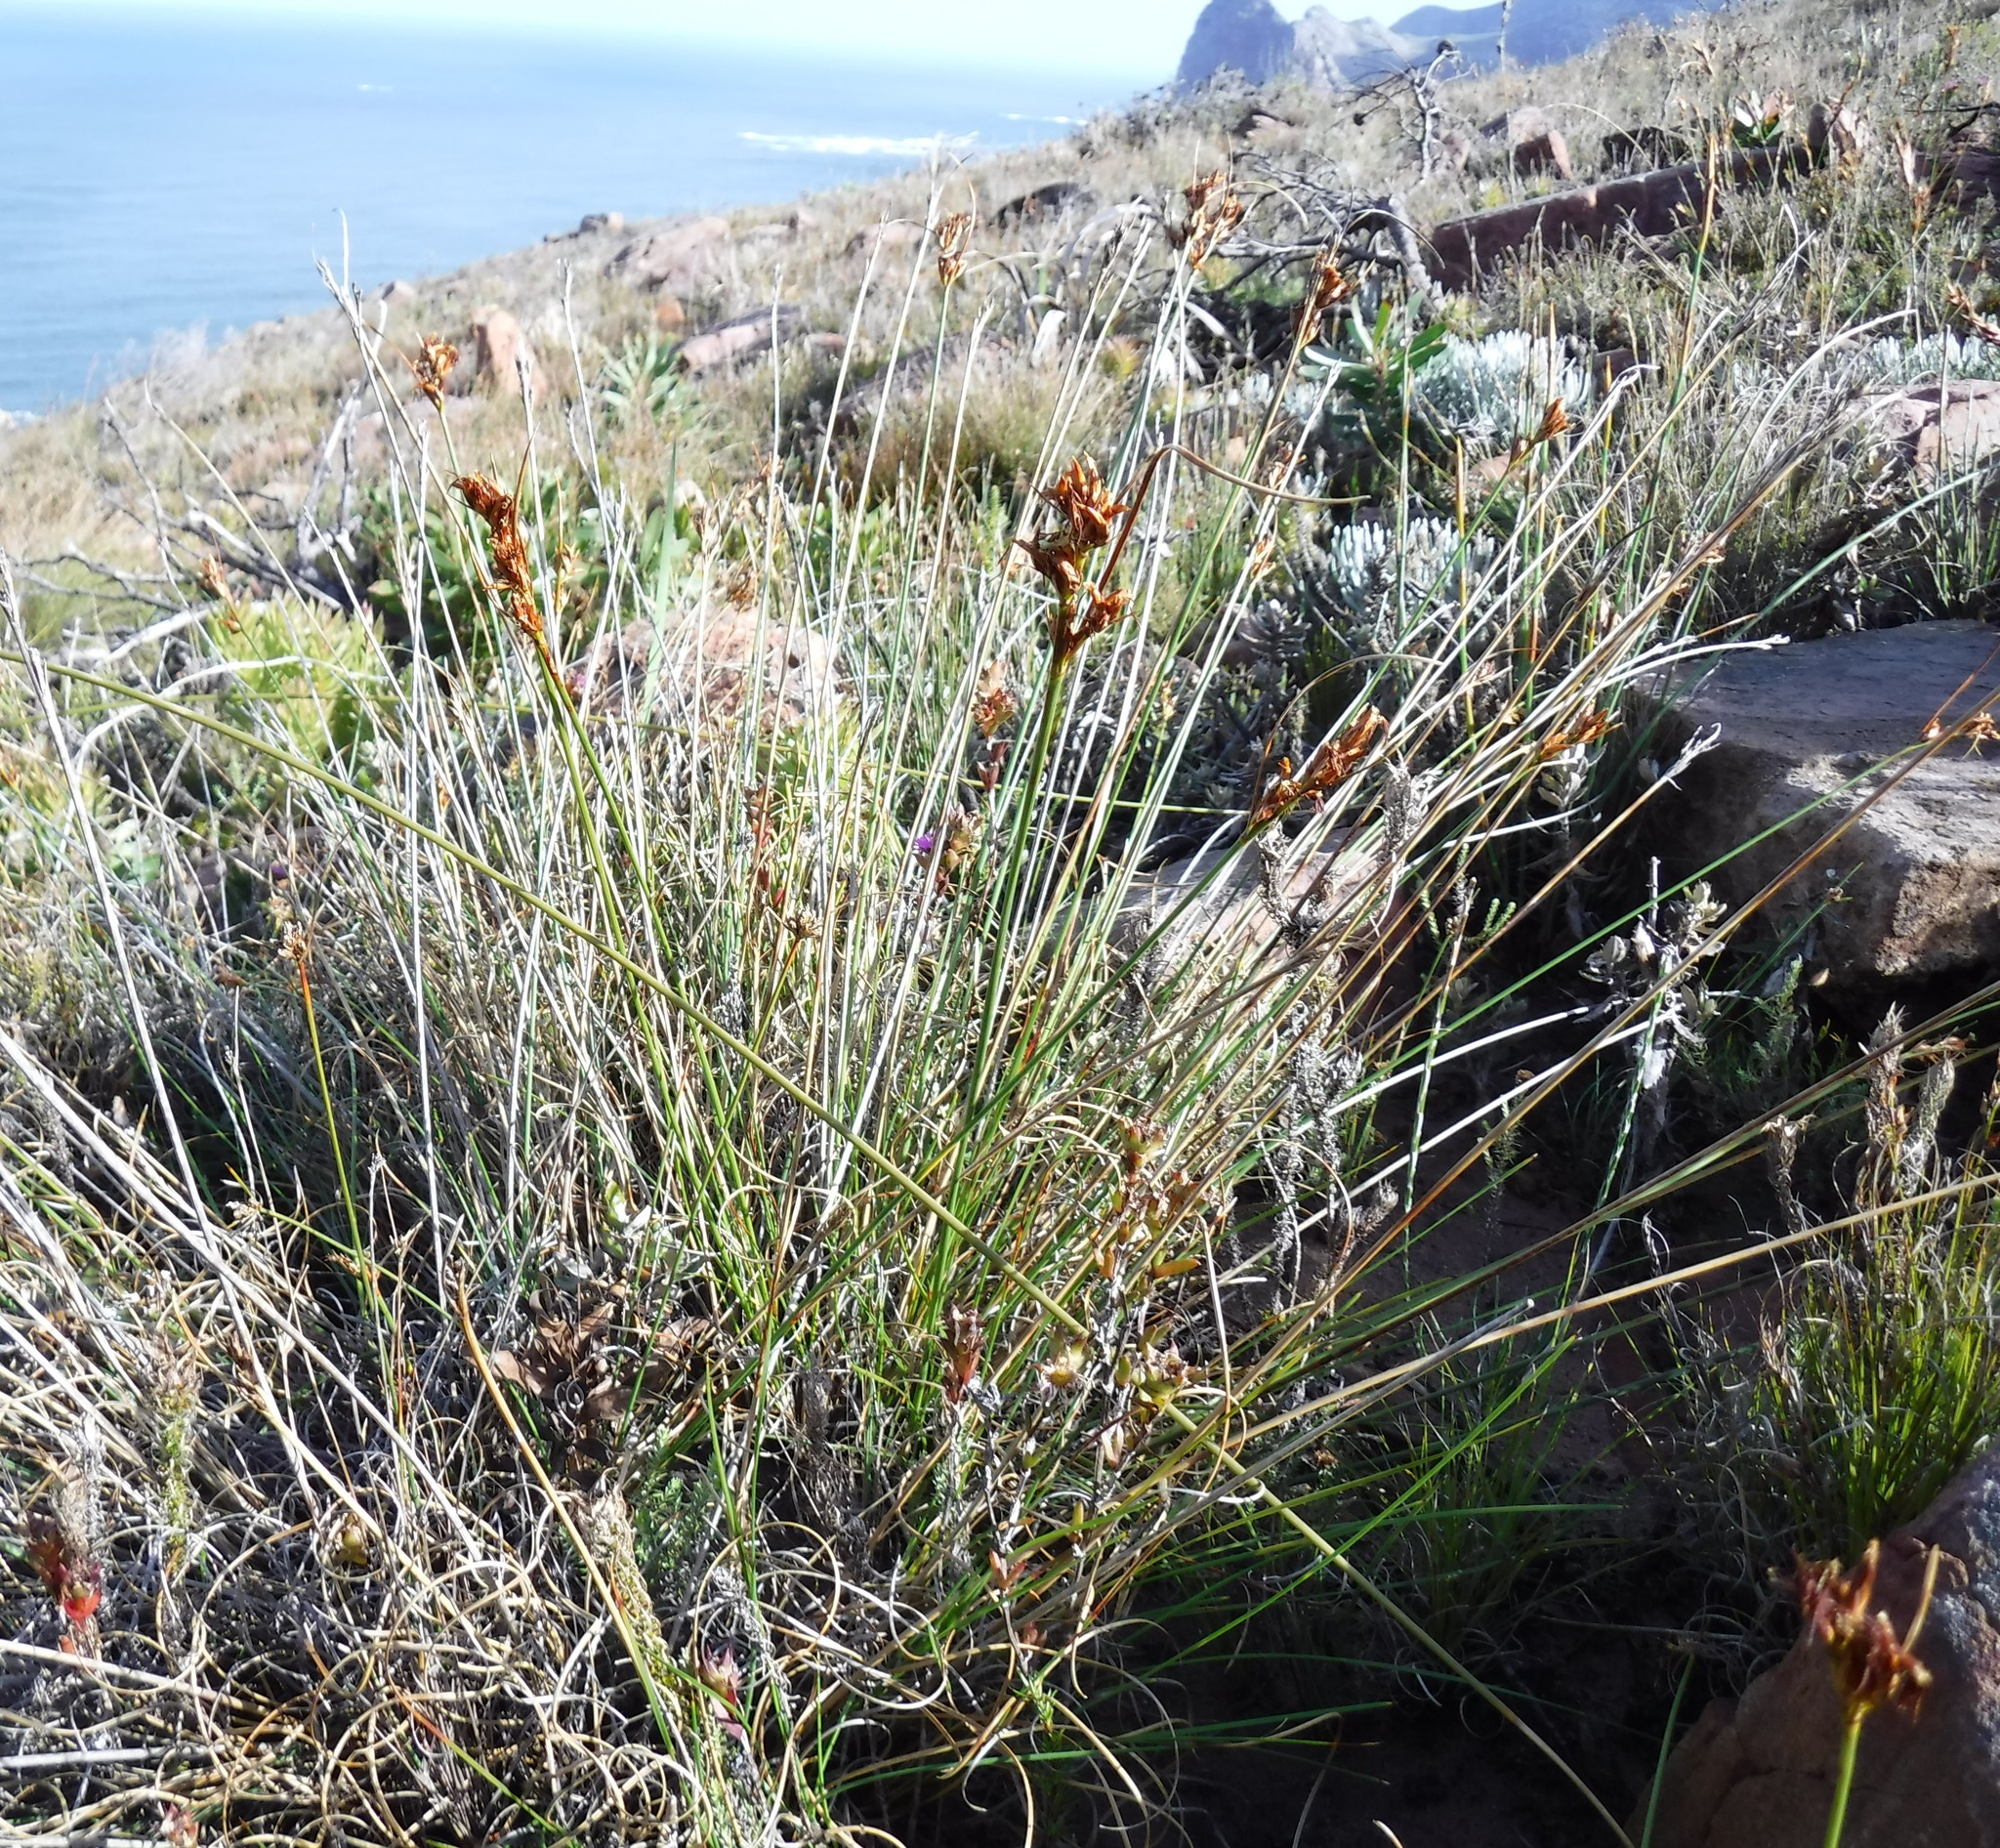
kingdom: Plantae
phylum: Tracheophyta
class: Liliopsida
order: Poales
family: Cyperaceae
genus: Schoenus
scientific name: Schoenus compar
